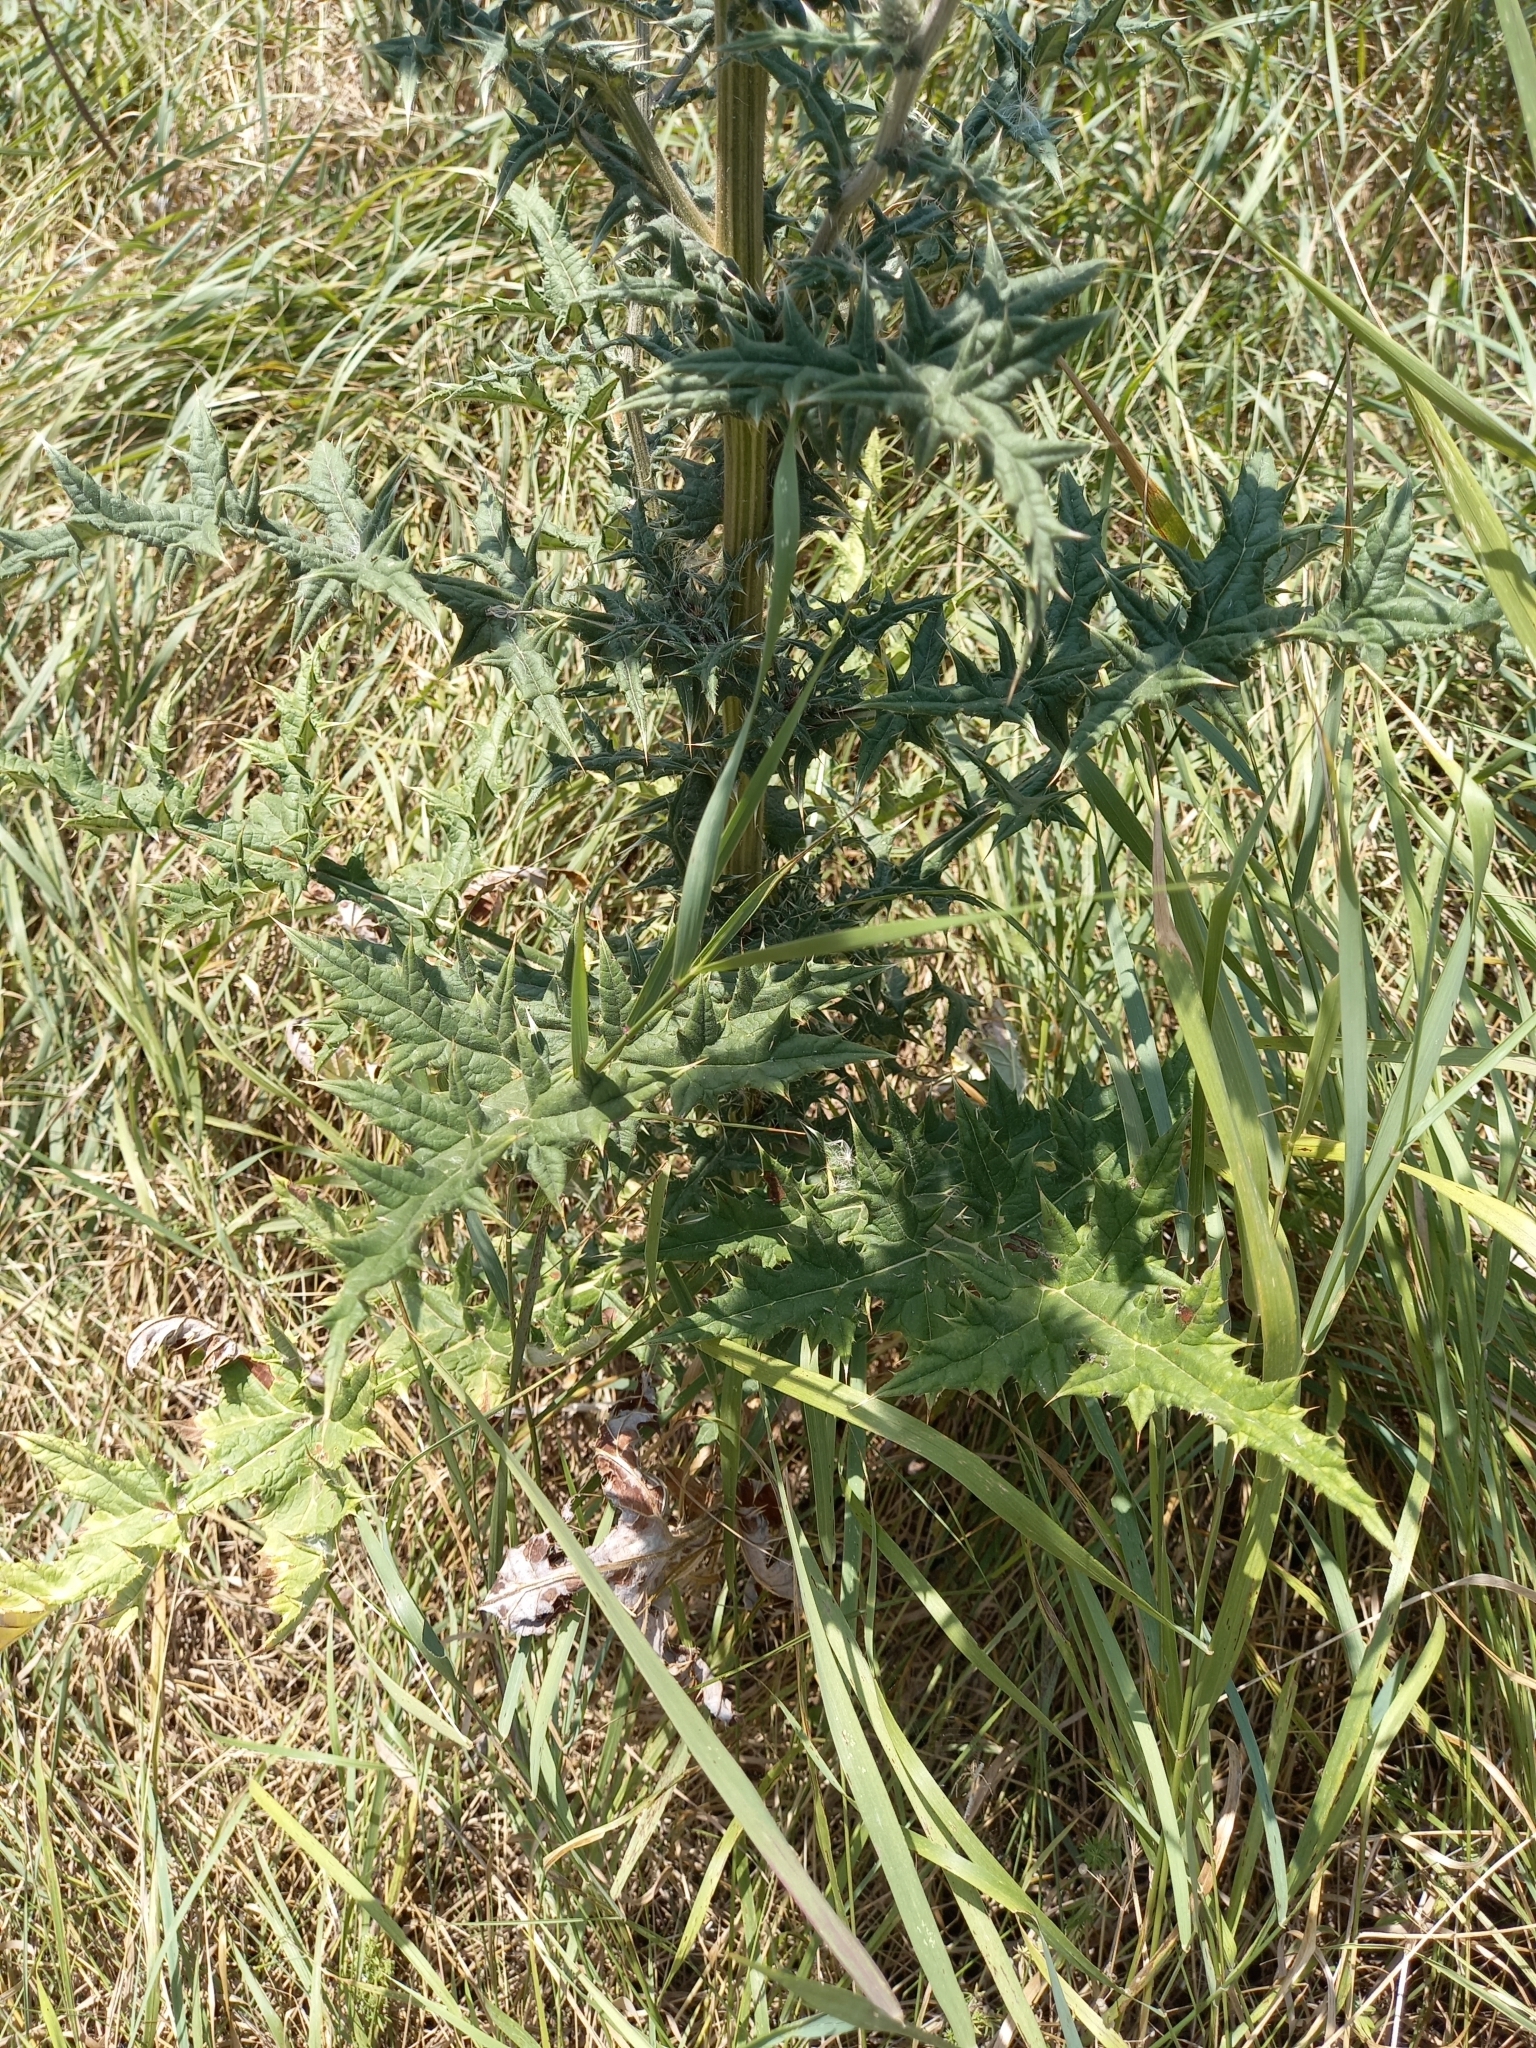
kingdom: Plantae
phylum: Tracheophyta
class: Magnoliopsida
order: Asterales
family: Asteraceae
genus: Echinops
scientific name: Echinops sphaerocephalus
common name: Glandular globe-thistle
